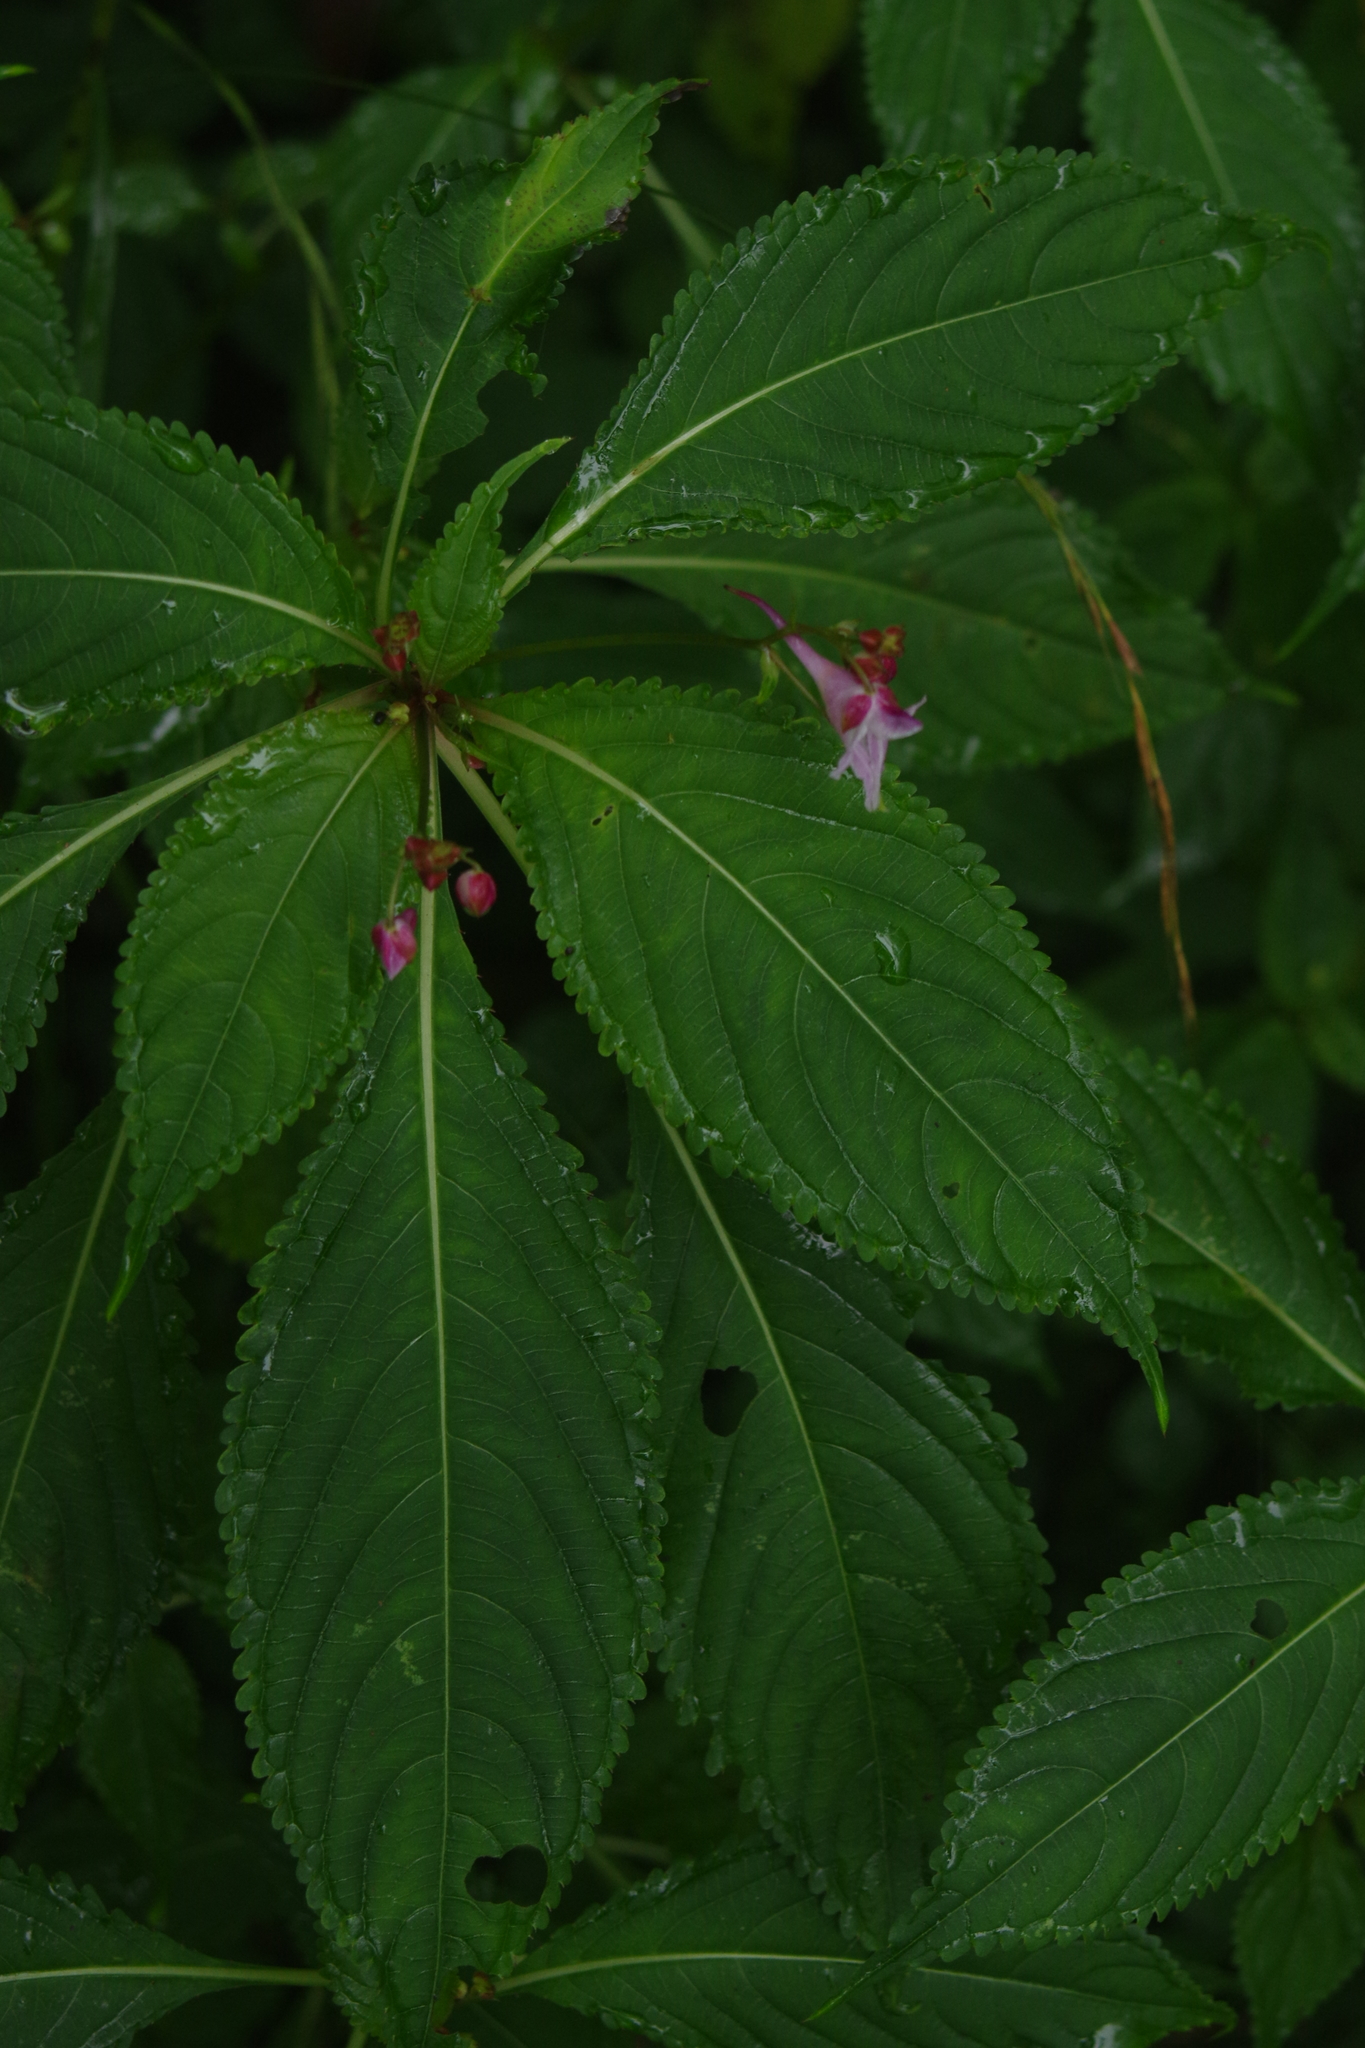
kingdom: Plantae
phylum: Tracheophyta
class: Magnoliopsida
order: Ericales
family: Balsaminaceae
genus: Impatiens
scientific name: Impatiens devolii
